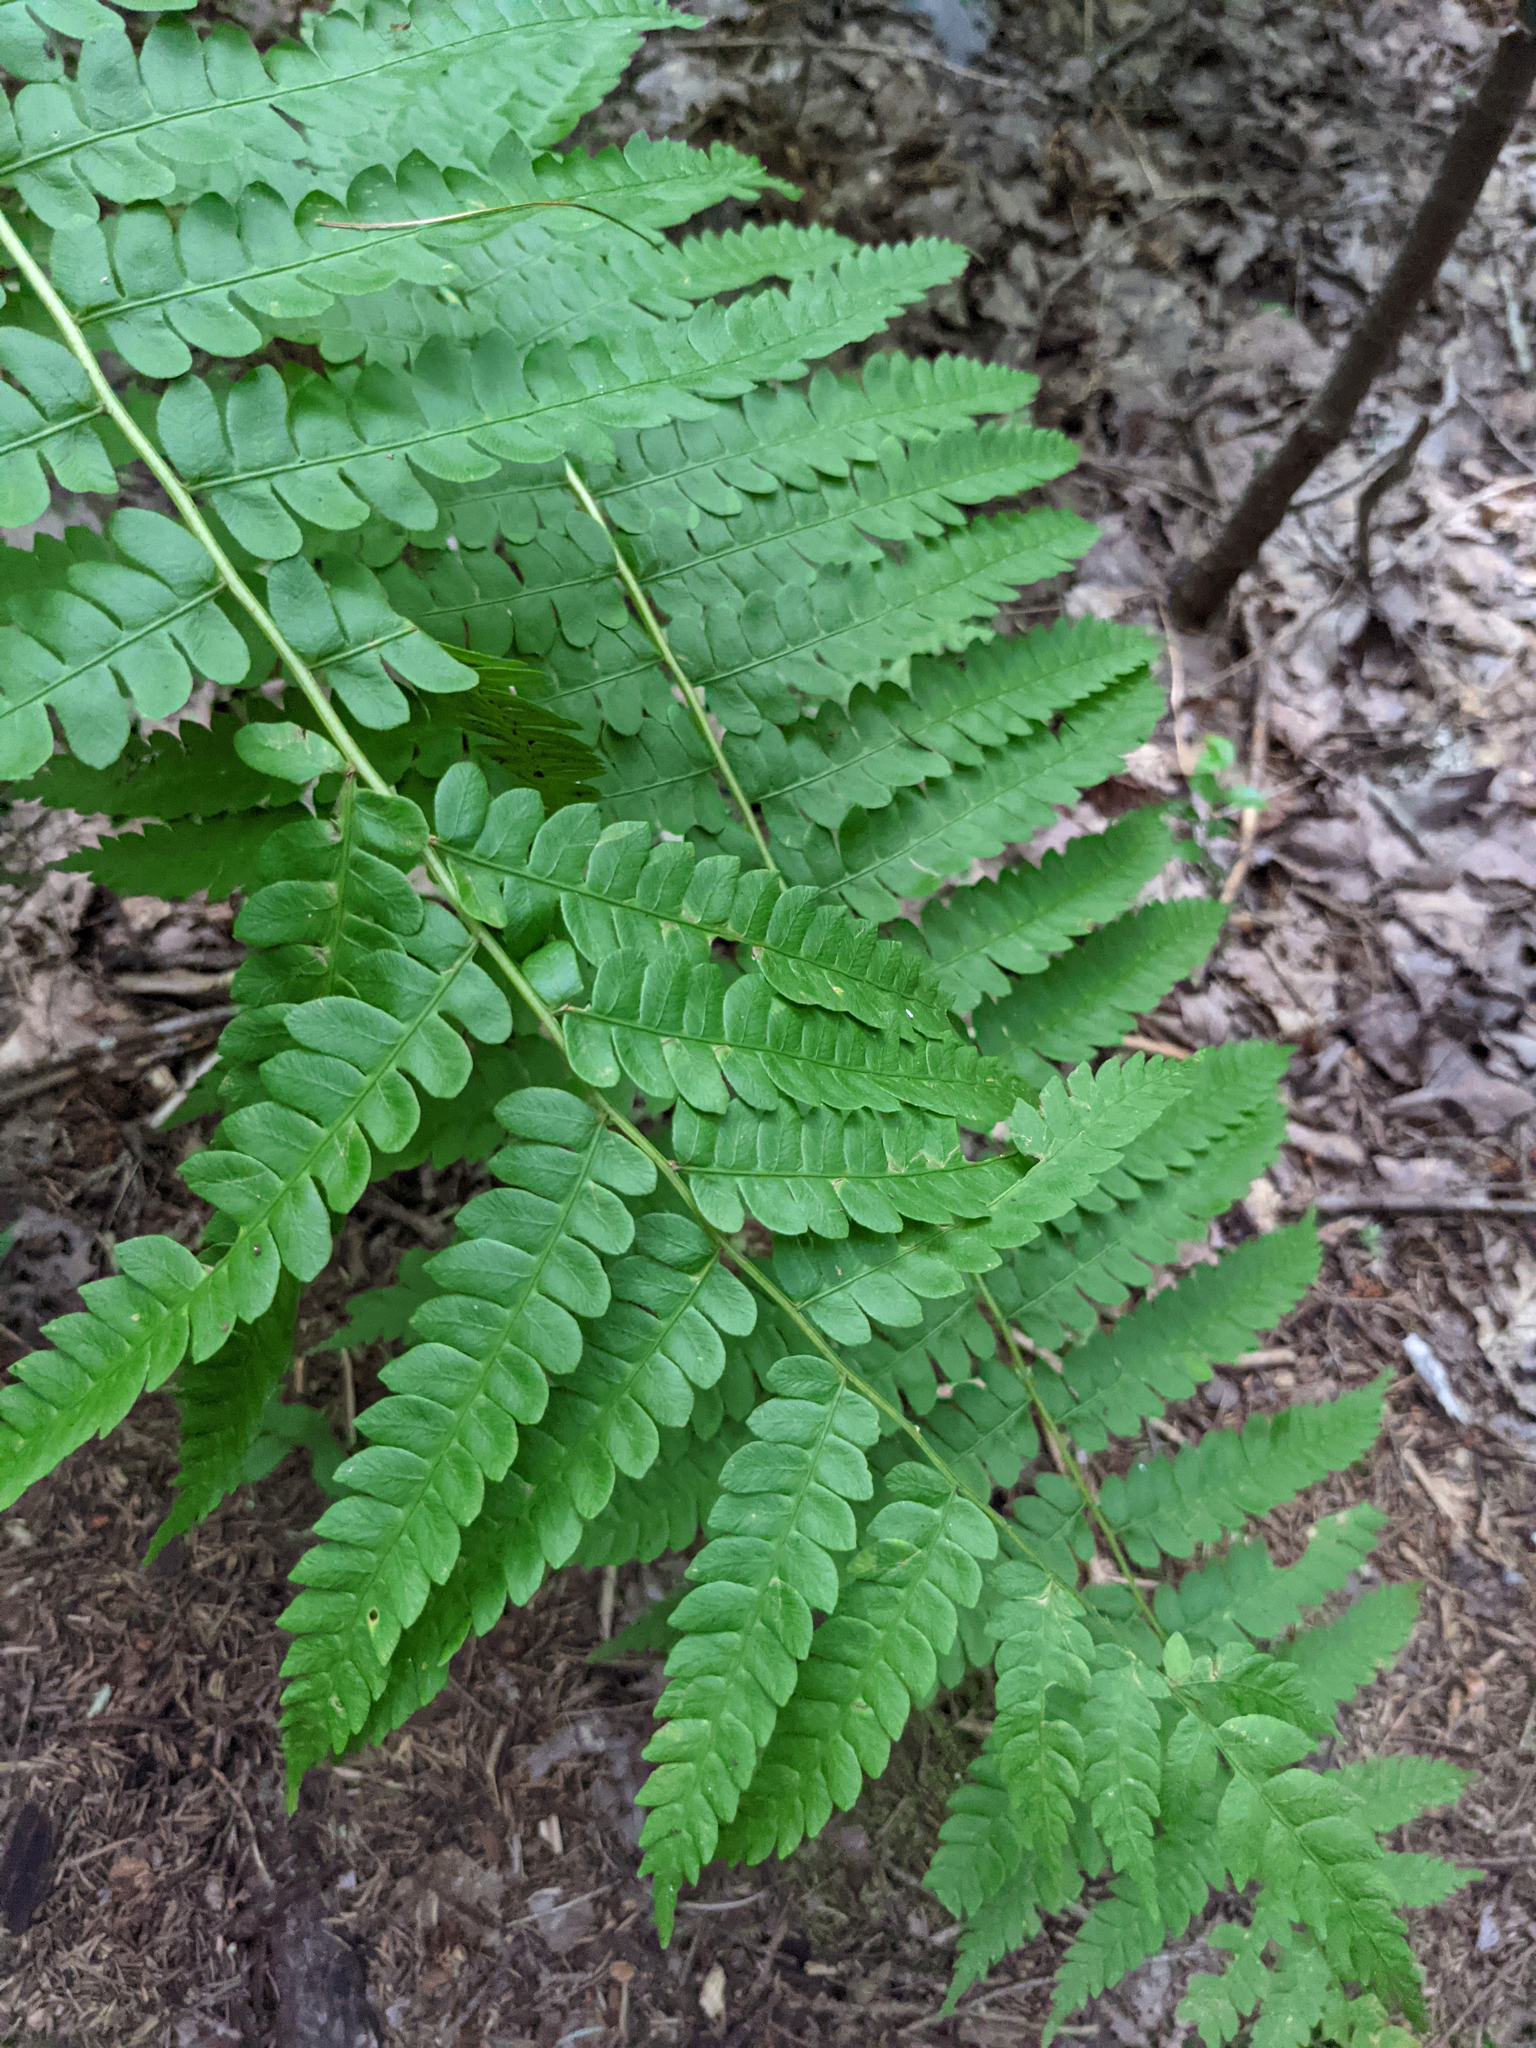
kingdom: Plantae
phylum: Tracheophyta
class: Polypodiopsida
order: Osmundales
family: Osmundaceae
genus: Osmundastrum
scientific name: Osmundastrum cinnamomeum
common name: Cinnamon fern
